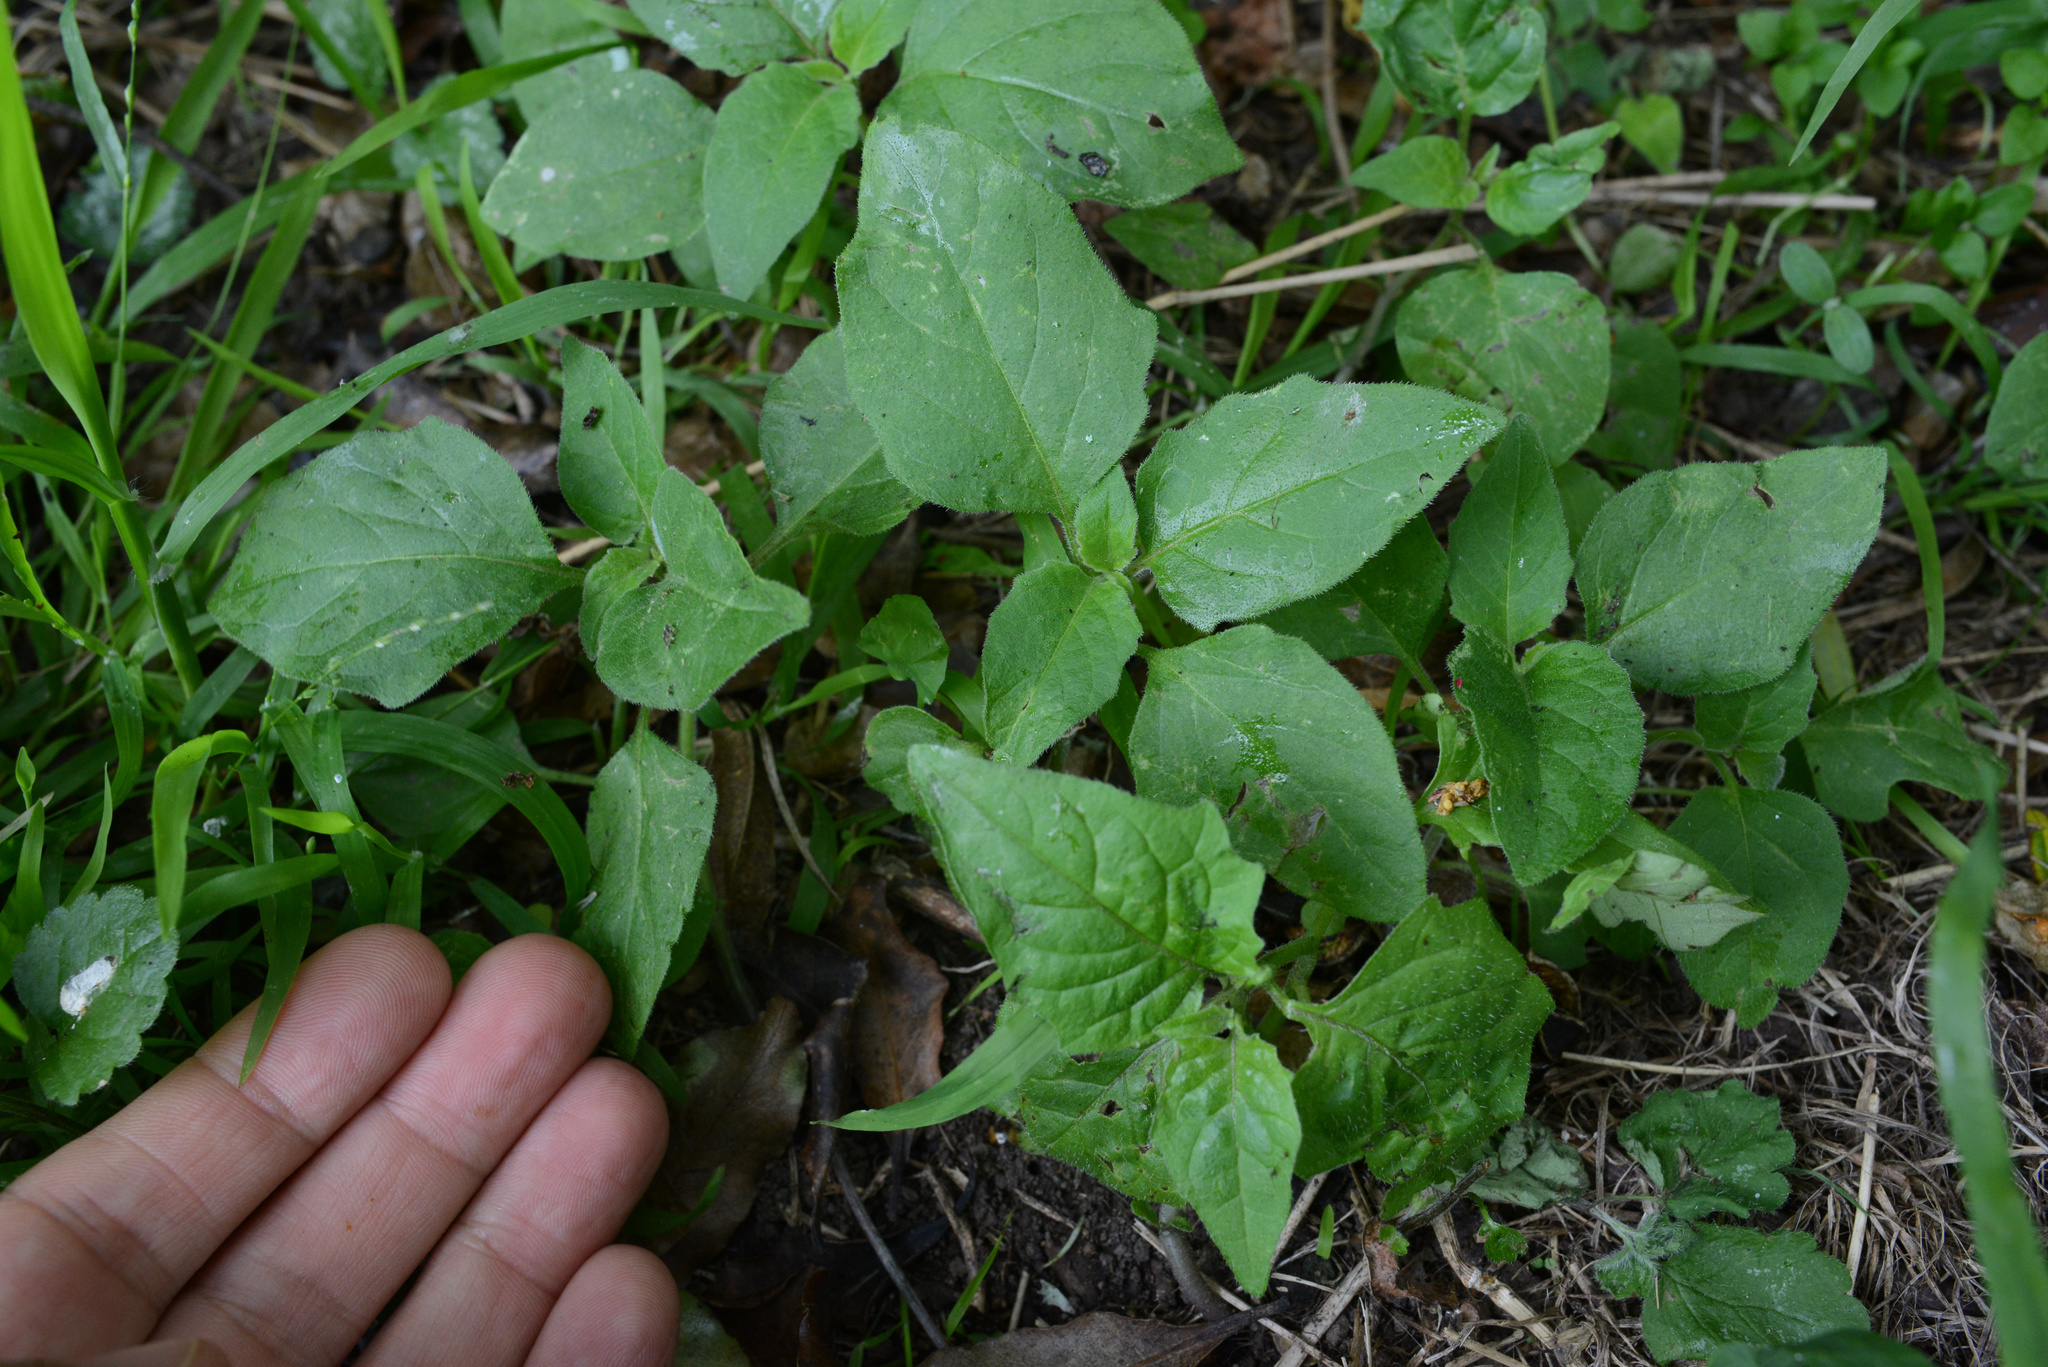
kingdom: Plantae
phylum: Tracheophyta
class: Magnoliopsida
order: Solanales
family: Solanaceae
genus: Solanum
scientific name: Solanum nigrum
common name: Black nightshade
